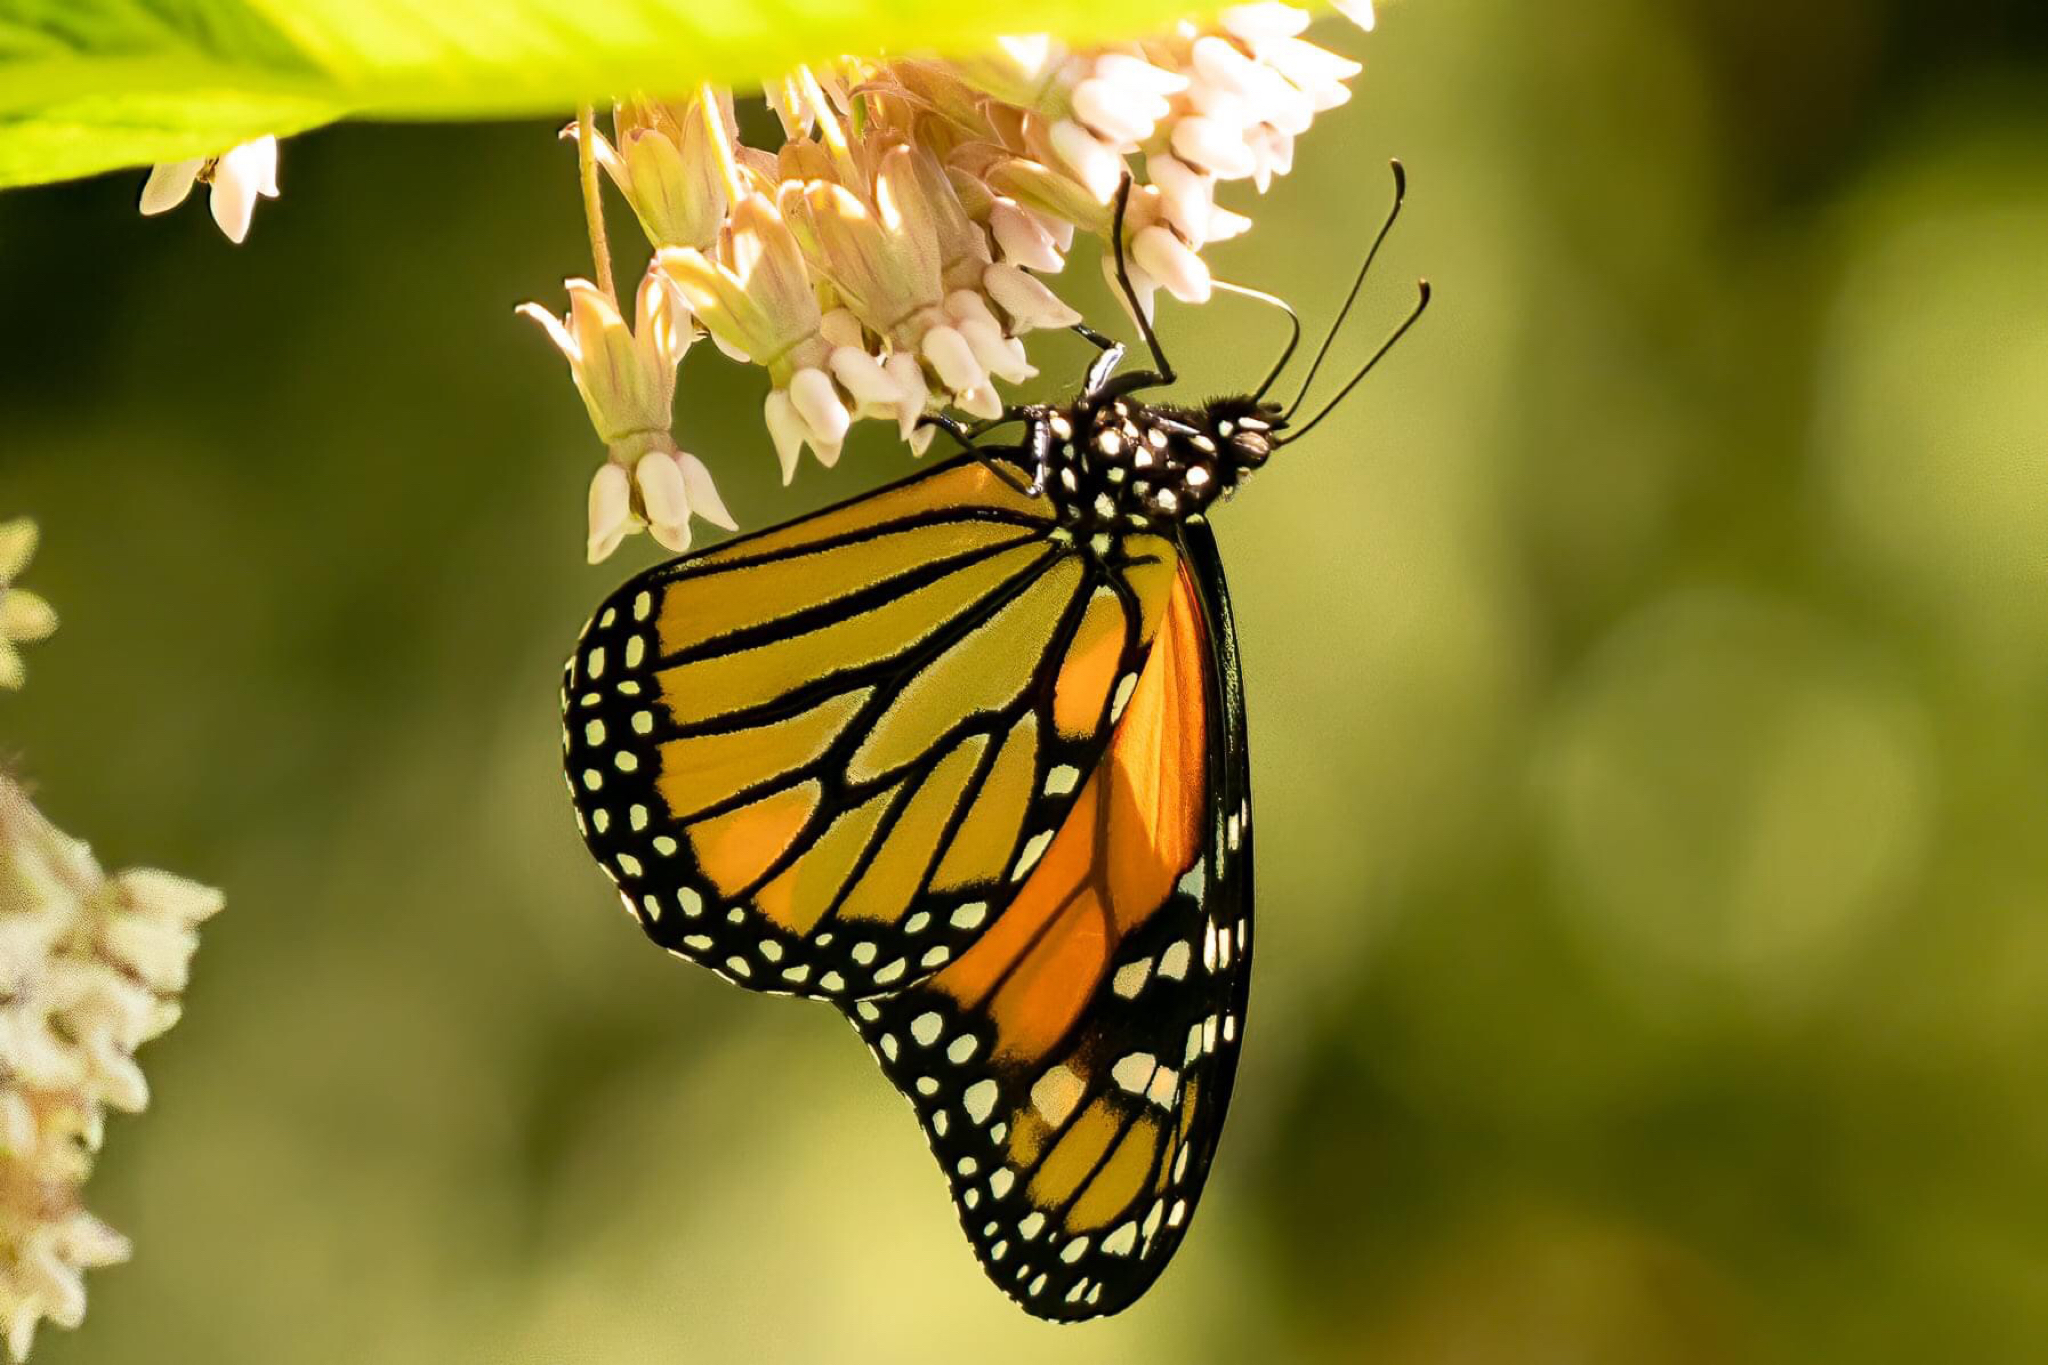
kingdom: Animalia
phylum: Arthropoda
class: Insecta
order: Lepidoptera
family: Nymphalidae
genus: Danaus
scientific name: Danaus plexippus
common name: Monarch
